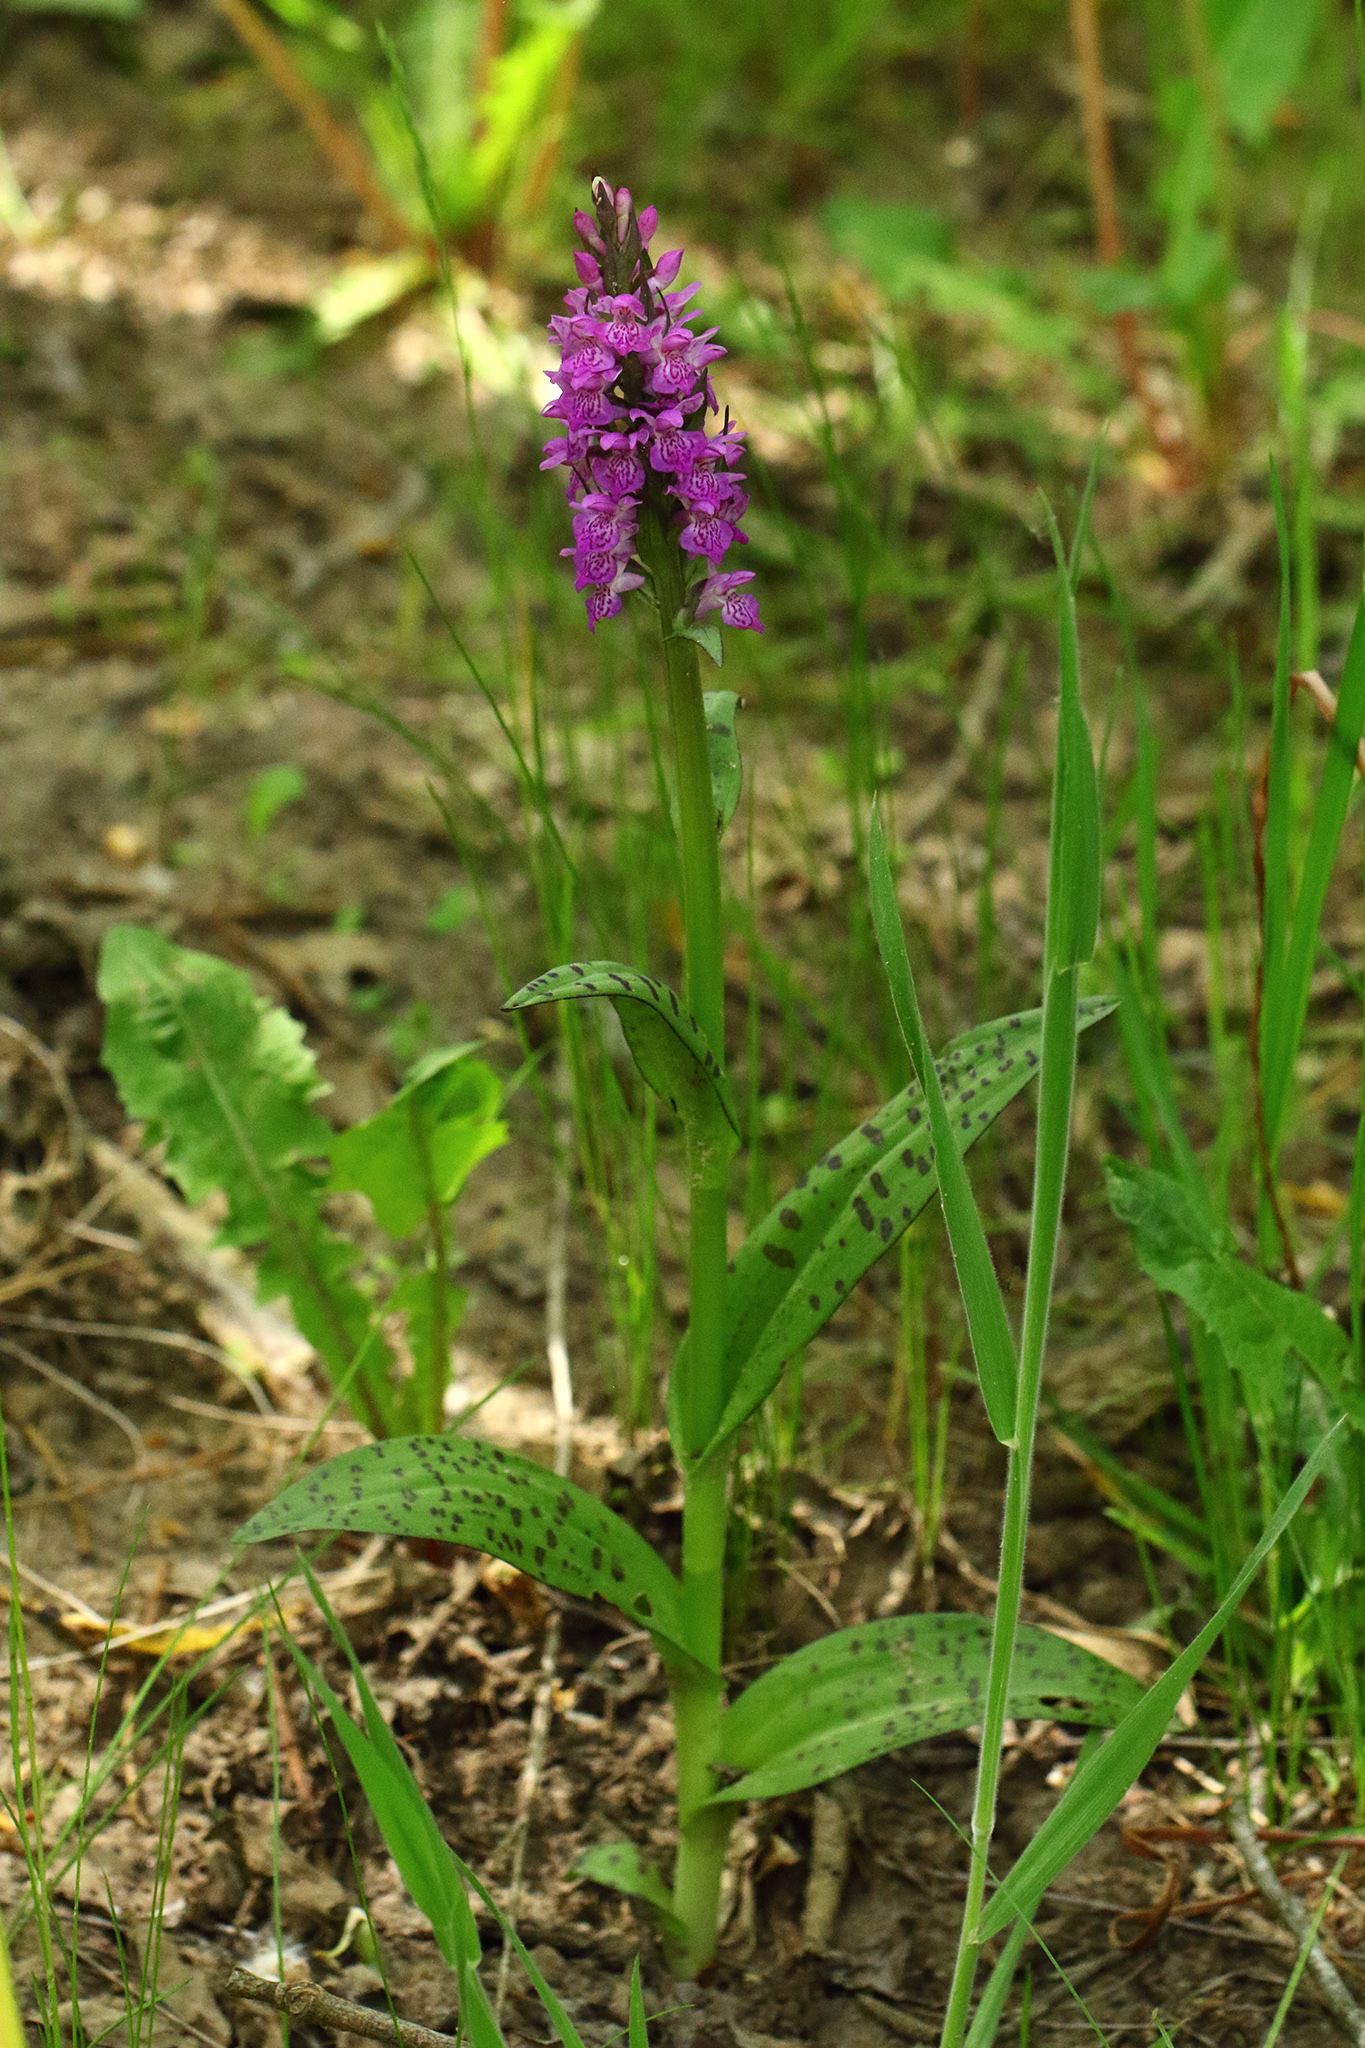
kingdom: Plantae
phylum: Tracheophyta
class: Liliopsida
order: Asparagales
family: Orchidaceae
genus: Dactylorhiza
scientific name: Dactylorhiza majalis
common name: Marsh orchid
